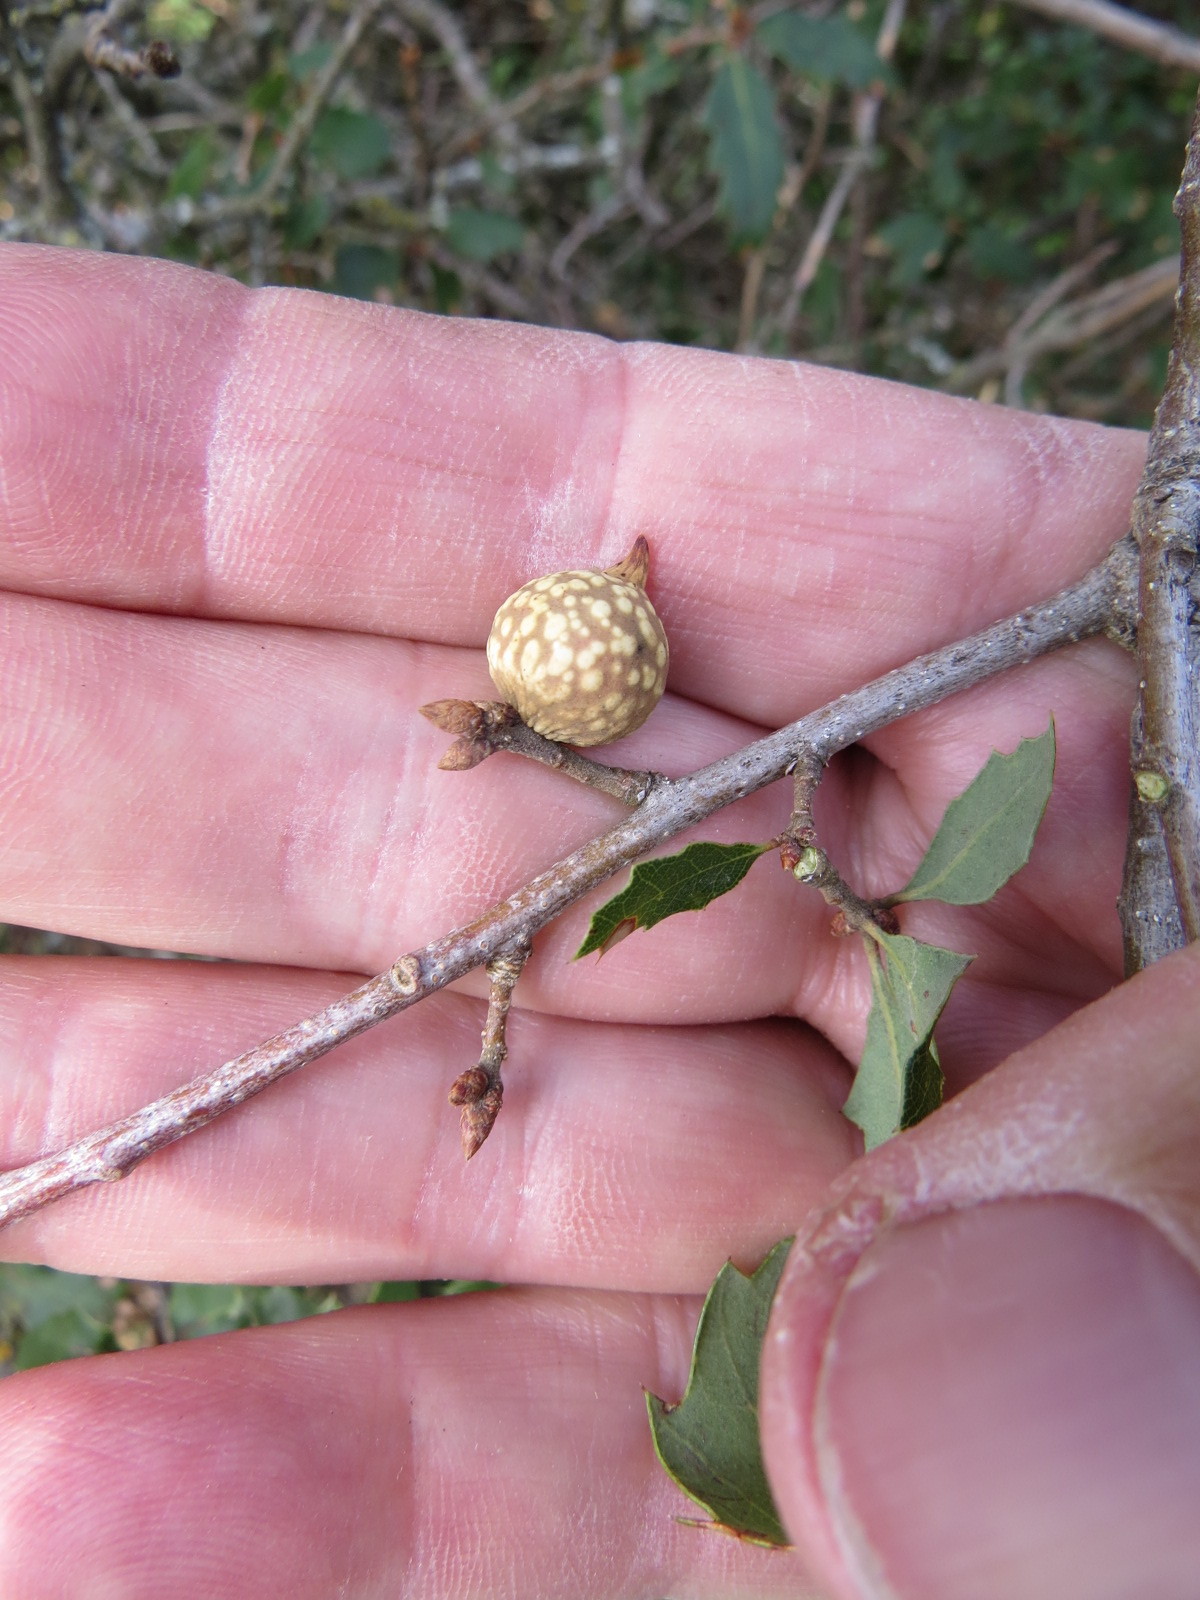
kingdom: Animalia
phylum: Arthropoda
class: Insecta
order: Hymenoptera
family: Cynipidae
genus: Burnettweldia
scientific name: Burnettweldia
